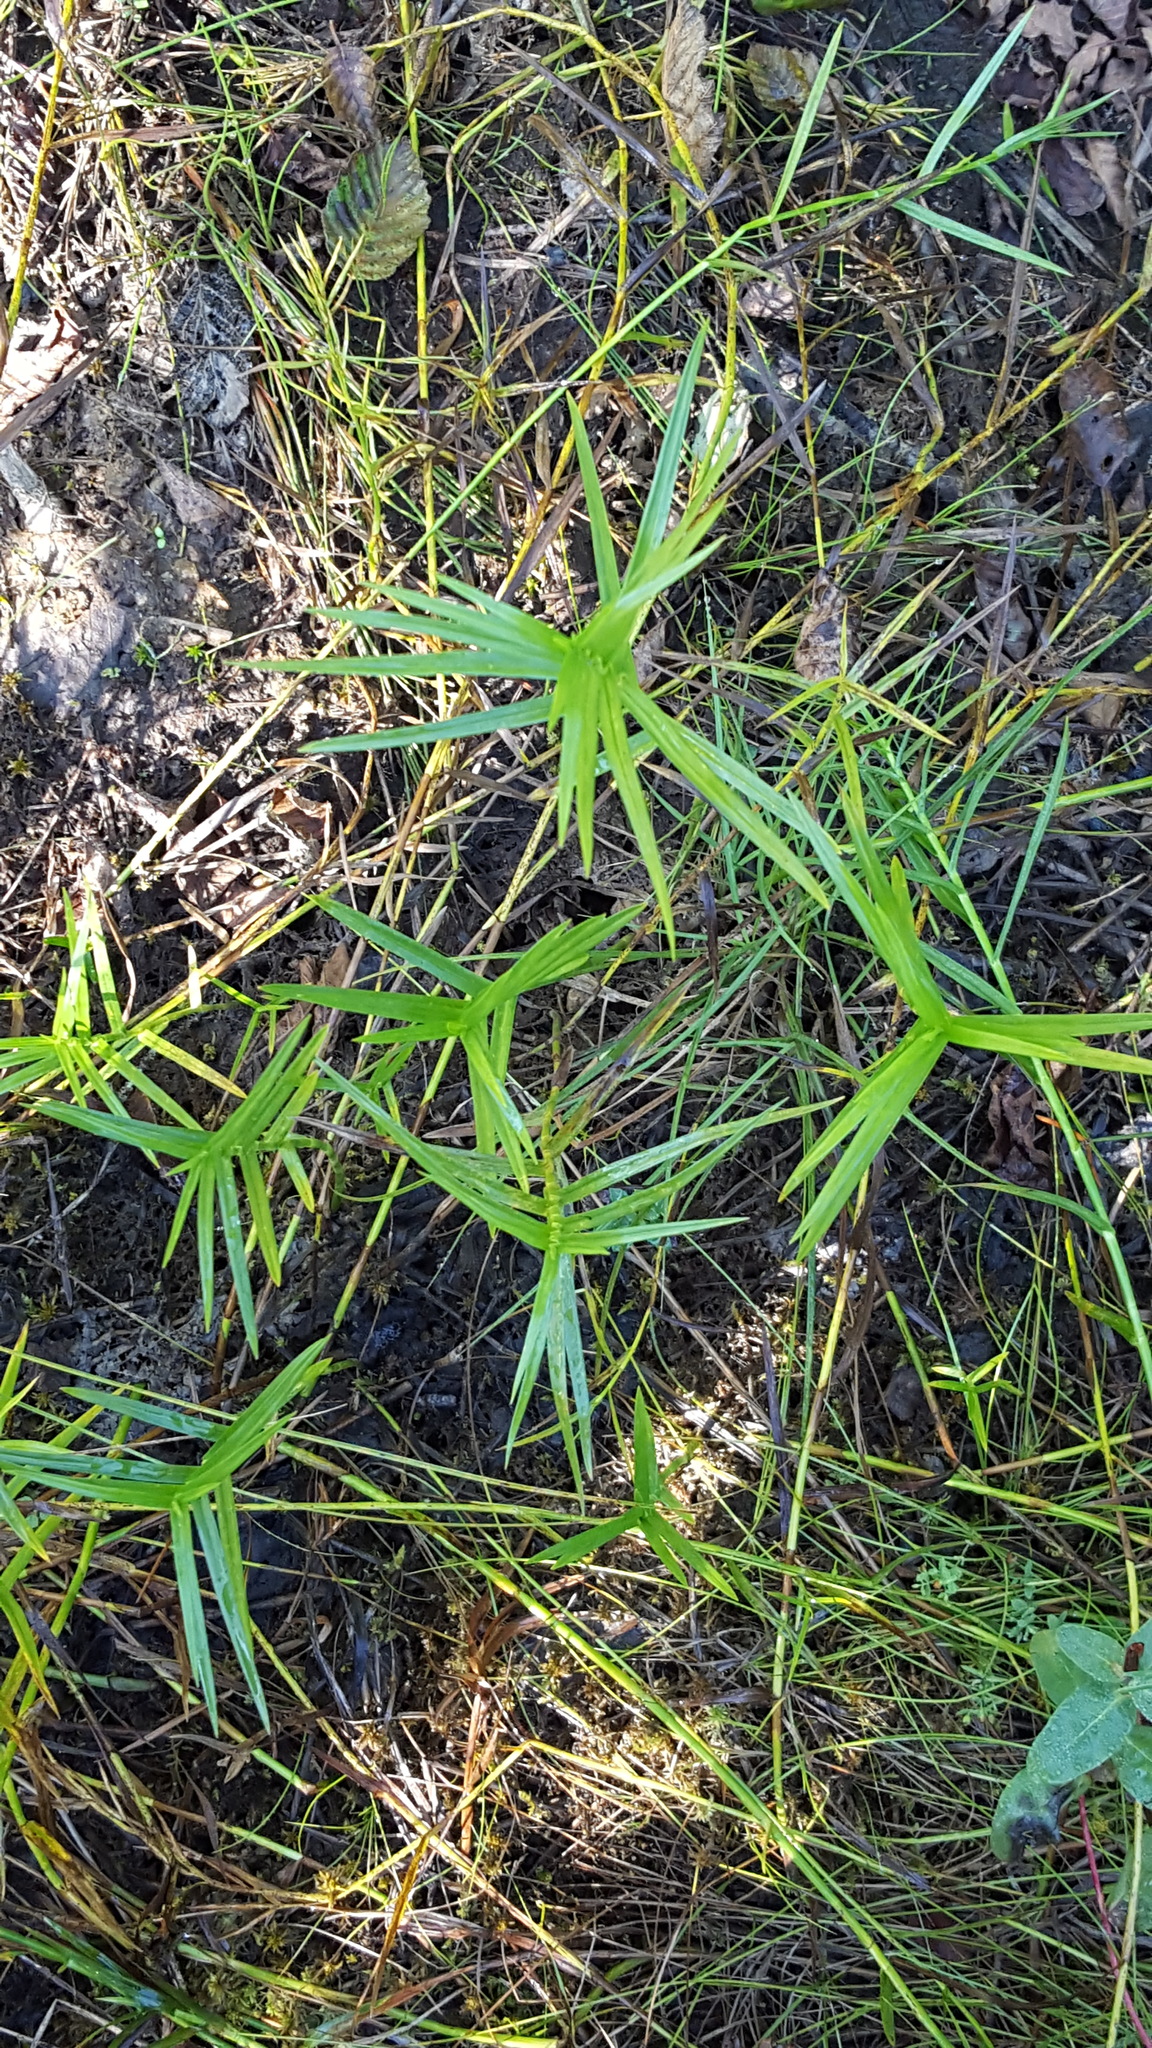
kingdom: Plantae
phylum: Tracheophyta
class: Liliopsida
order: Poales
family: Cyperaceae
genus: Dulichium
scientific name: Dulichium arundinaceum
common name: Three-way sedge
